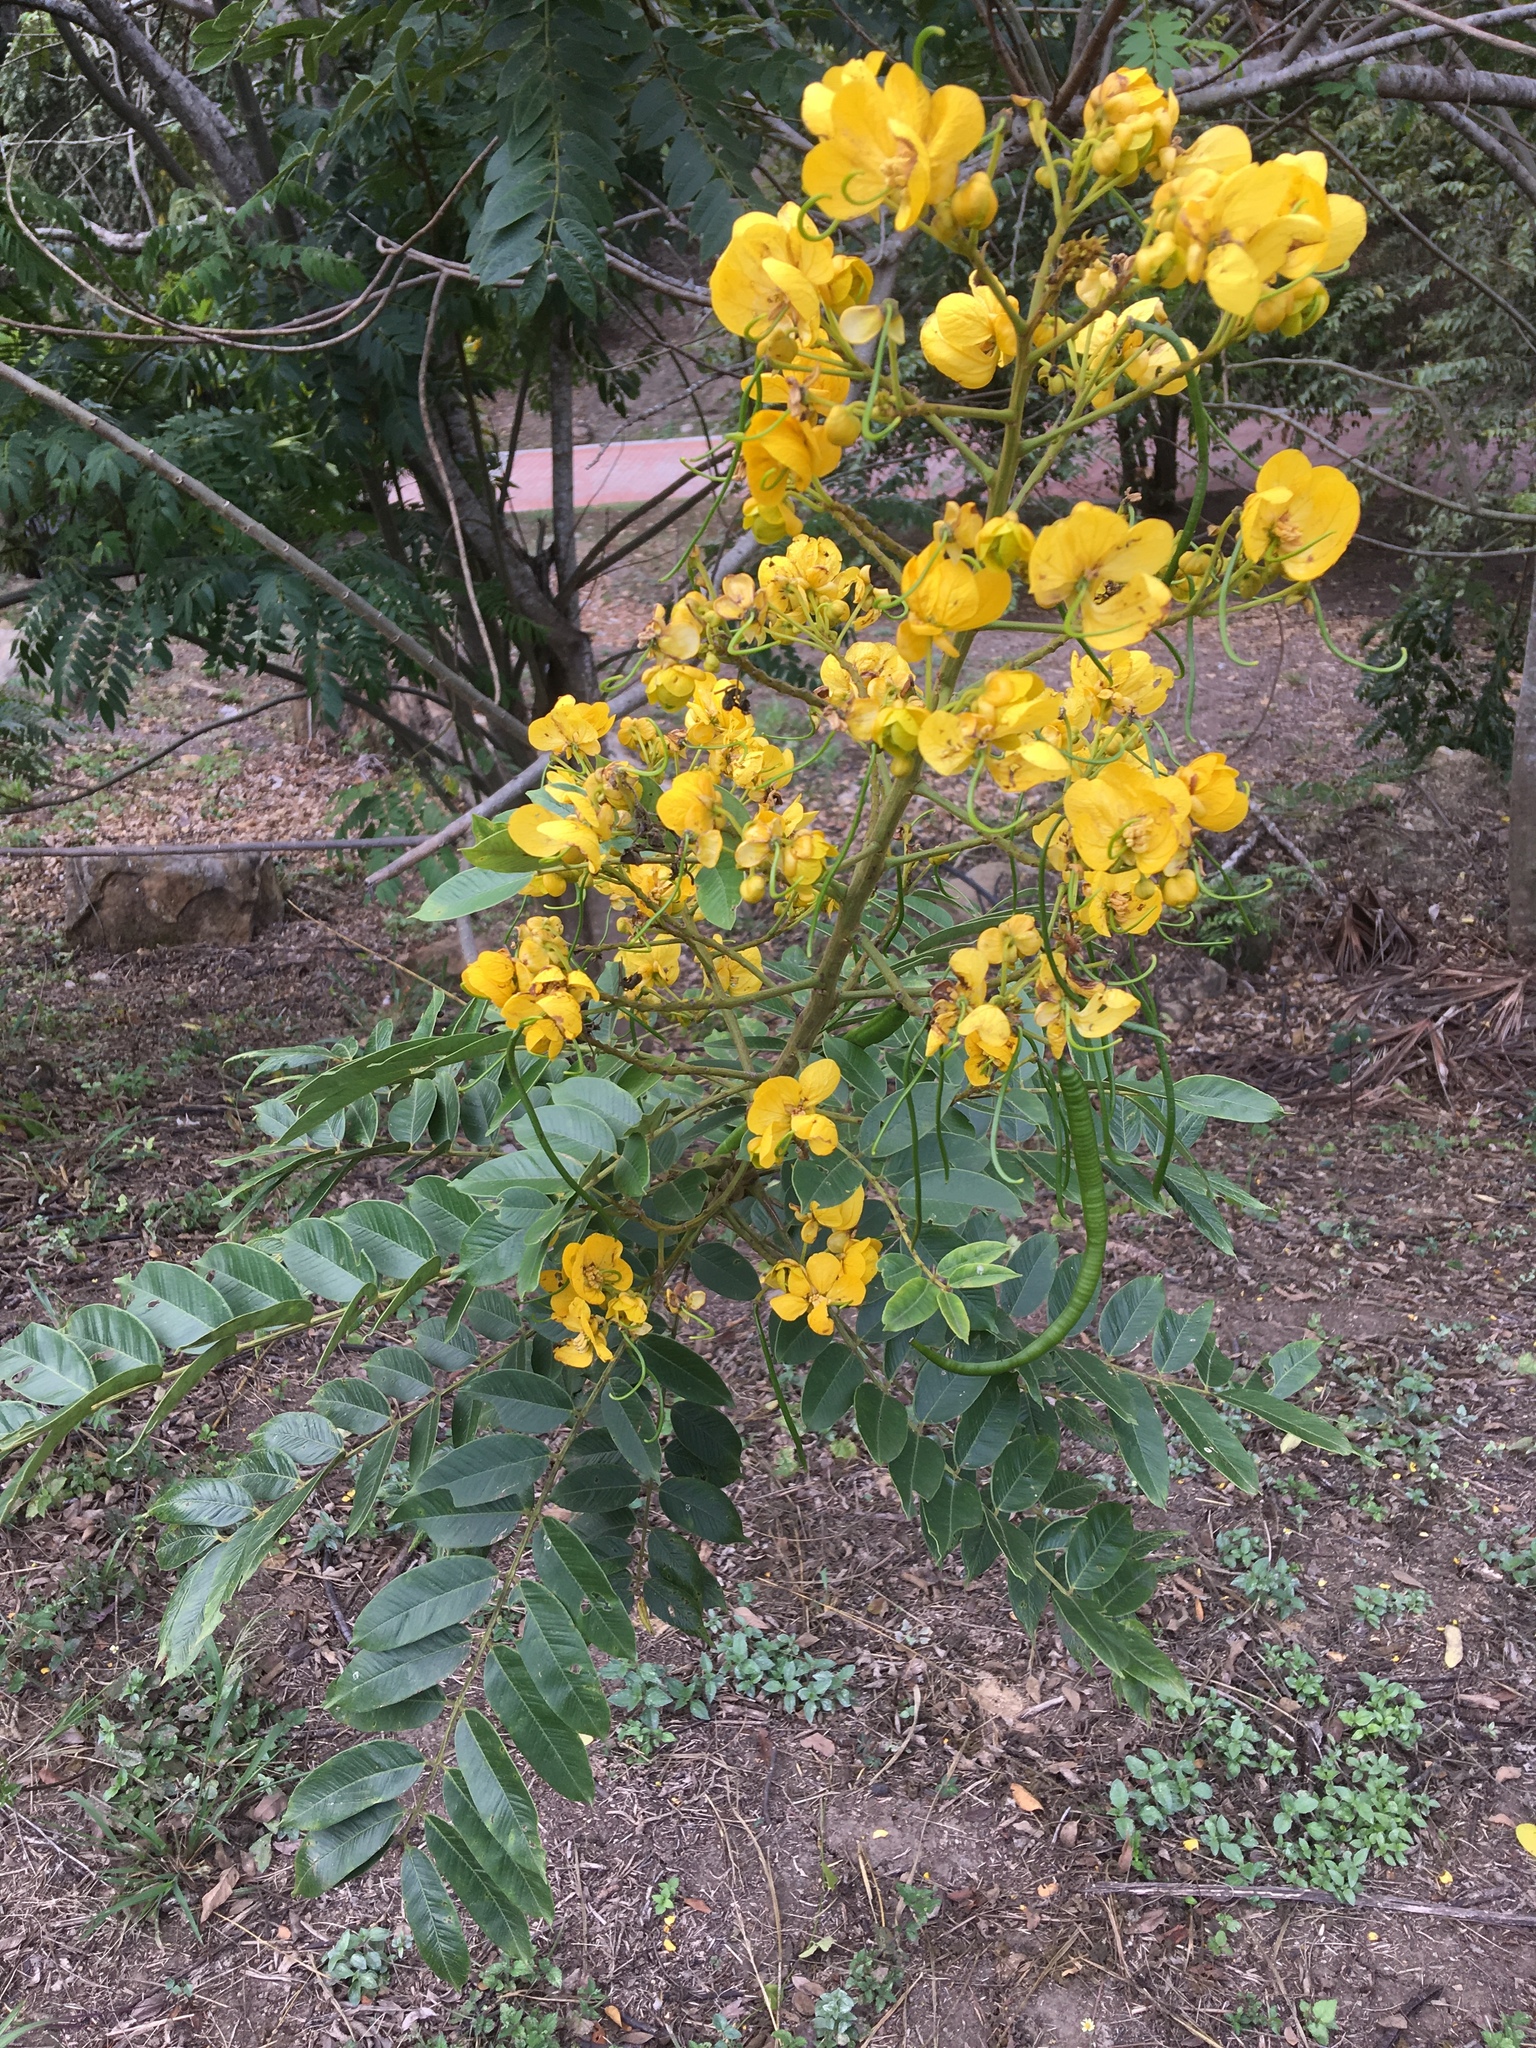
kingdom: Plantae
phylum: Tracheophyta
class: Magnoliopsida
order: Fabales
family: Fabaceae
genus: Senna
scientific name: Senna spectabilis
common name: Casia amarilla
